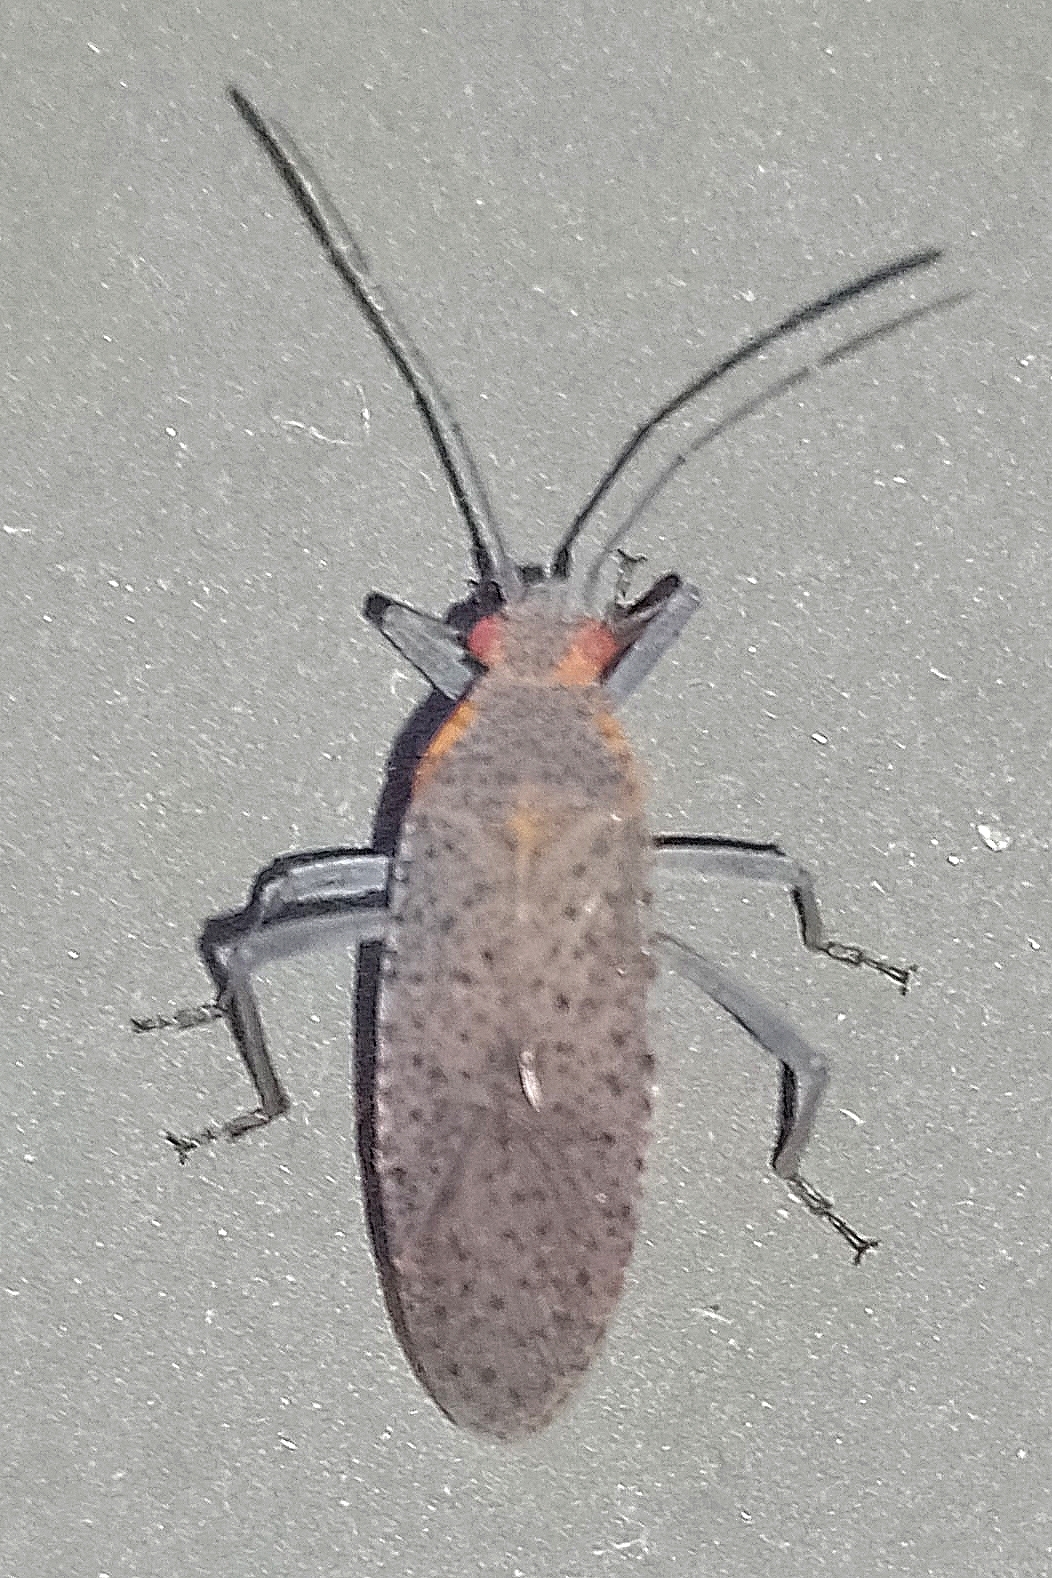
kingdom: Animalia
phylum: Arthropoda
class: Insecta
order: Hemiptera
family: Rhopalidae
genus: Jadera
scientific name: Jadera coturnix
